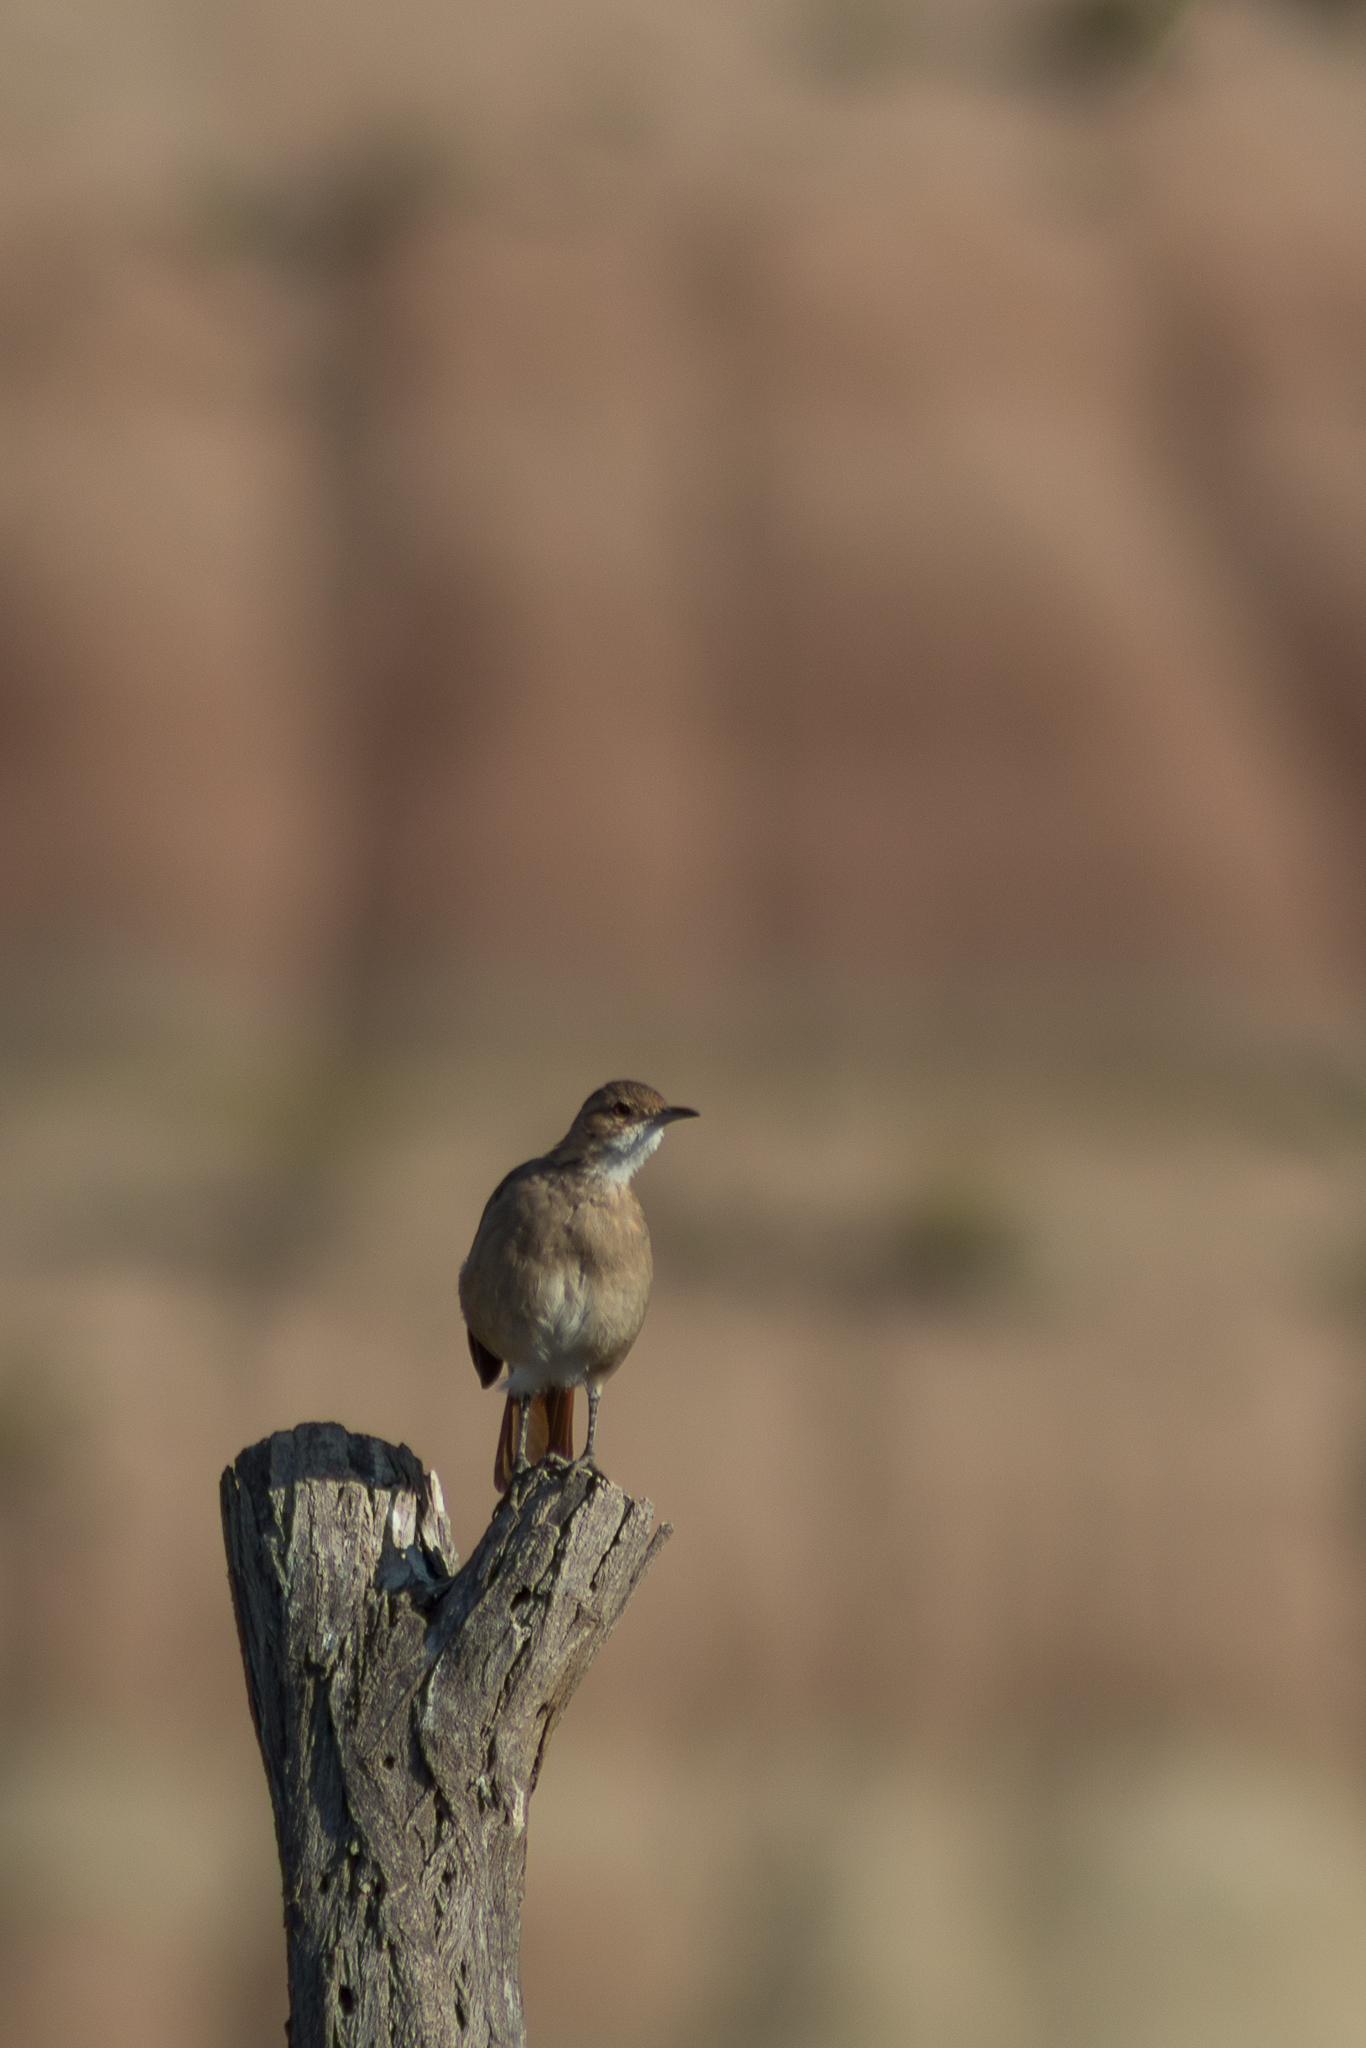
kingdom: Animalia
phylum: Chordata
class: Aves
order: Passeriformes
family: Furnariidae
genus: Furnarius
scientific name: Furnarius rufus
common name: Rufous hornero
